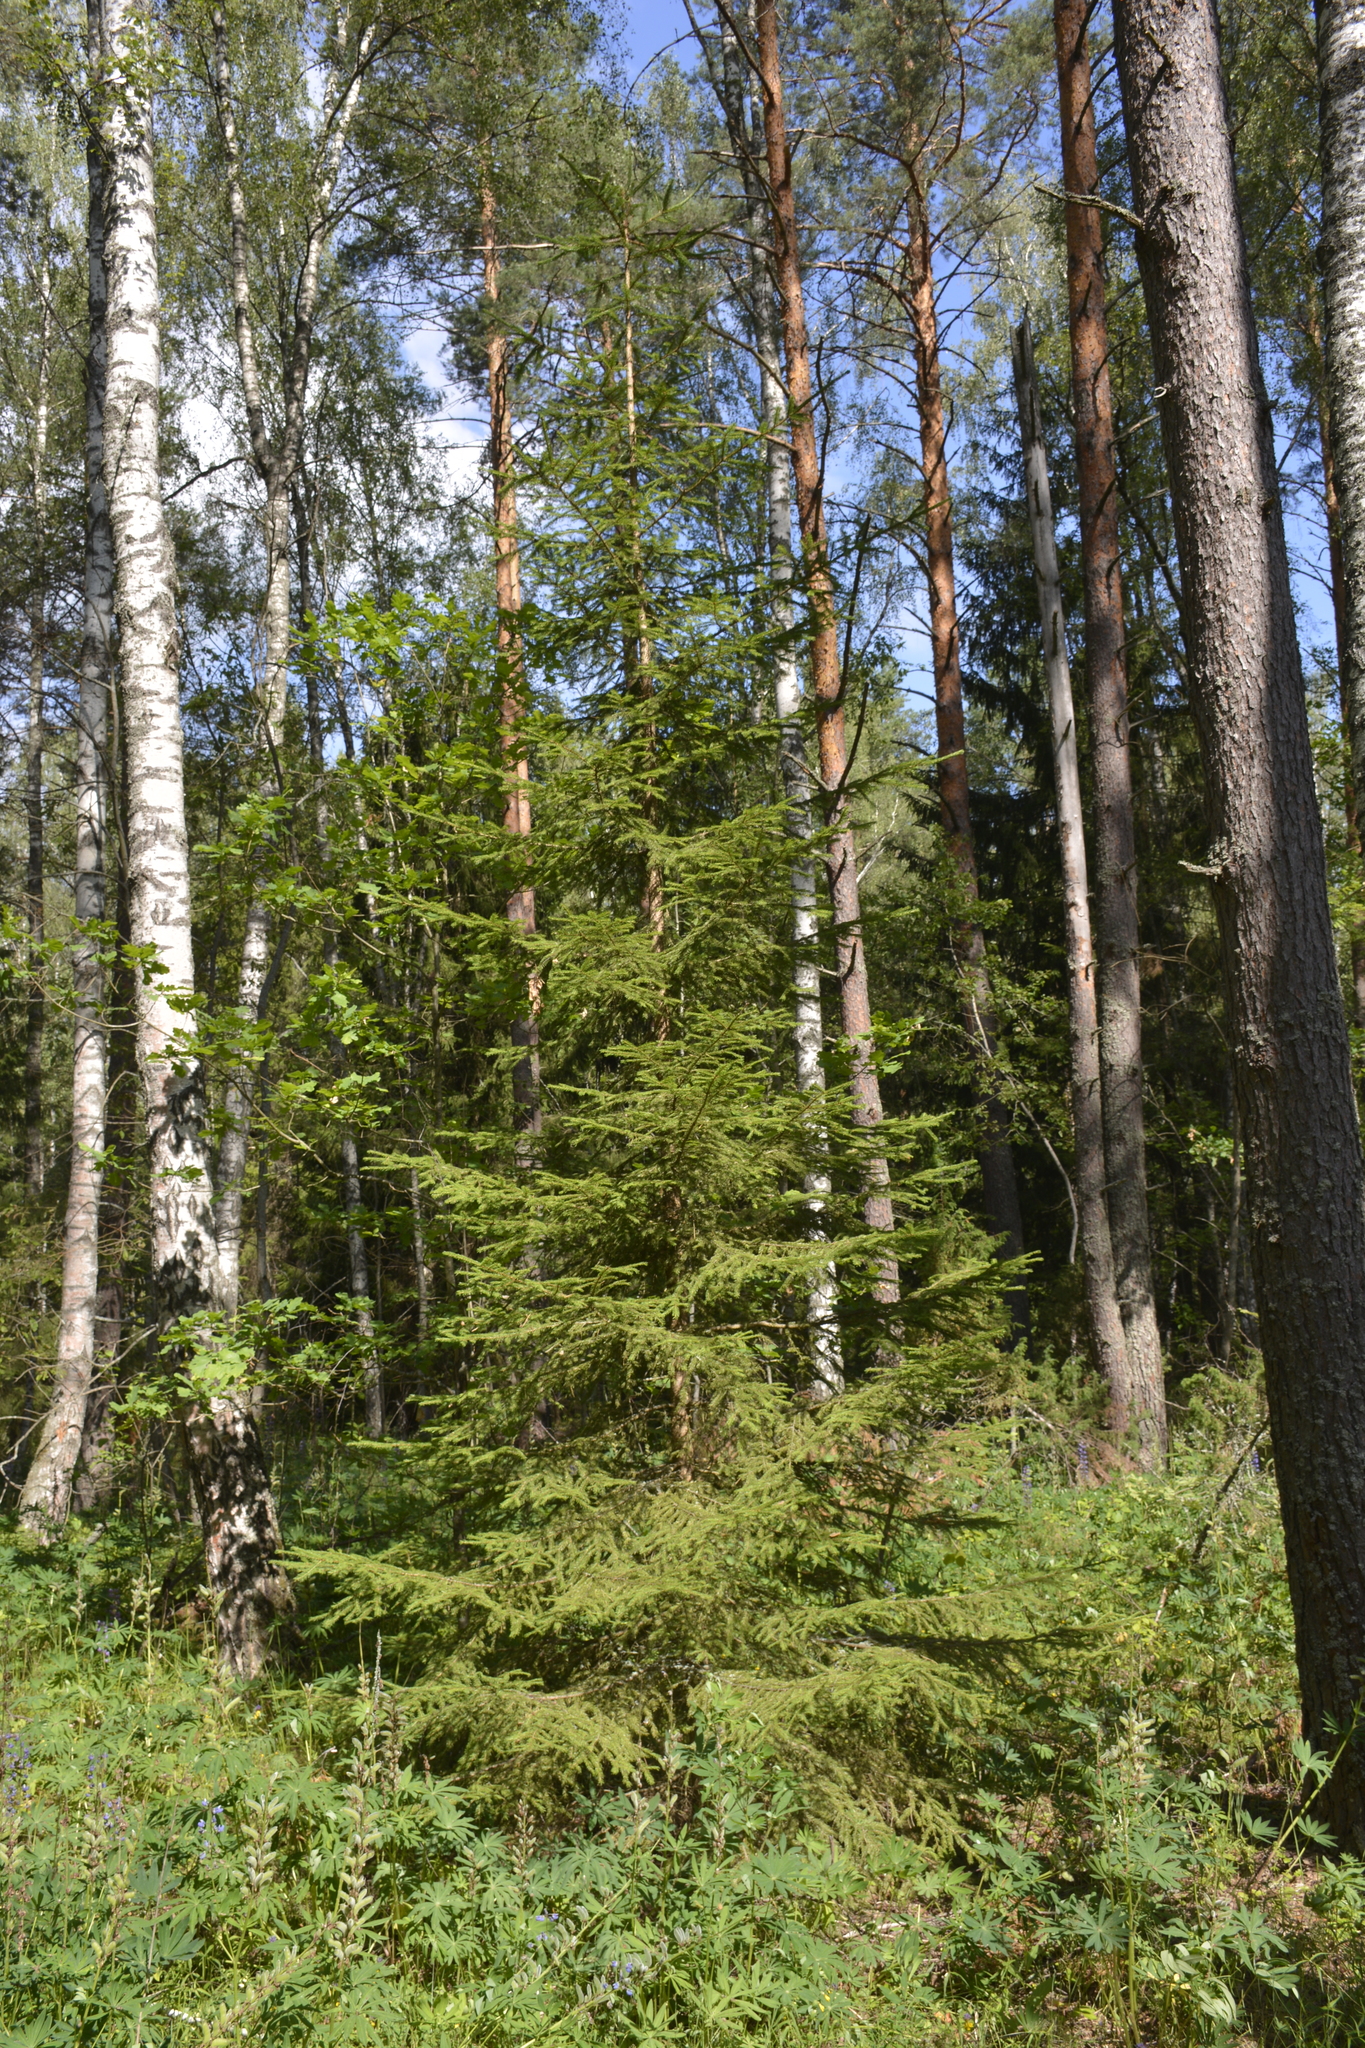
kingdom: Plantae
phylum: Tracheophyta
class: Pinopsida
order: Pinales
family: Pinaceae
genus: Picea
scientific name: Picea abies
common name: Norway spruce
